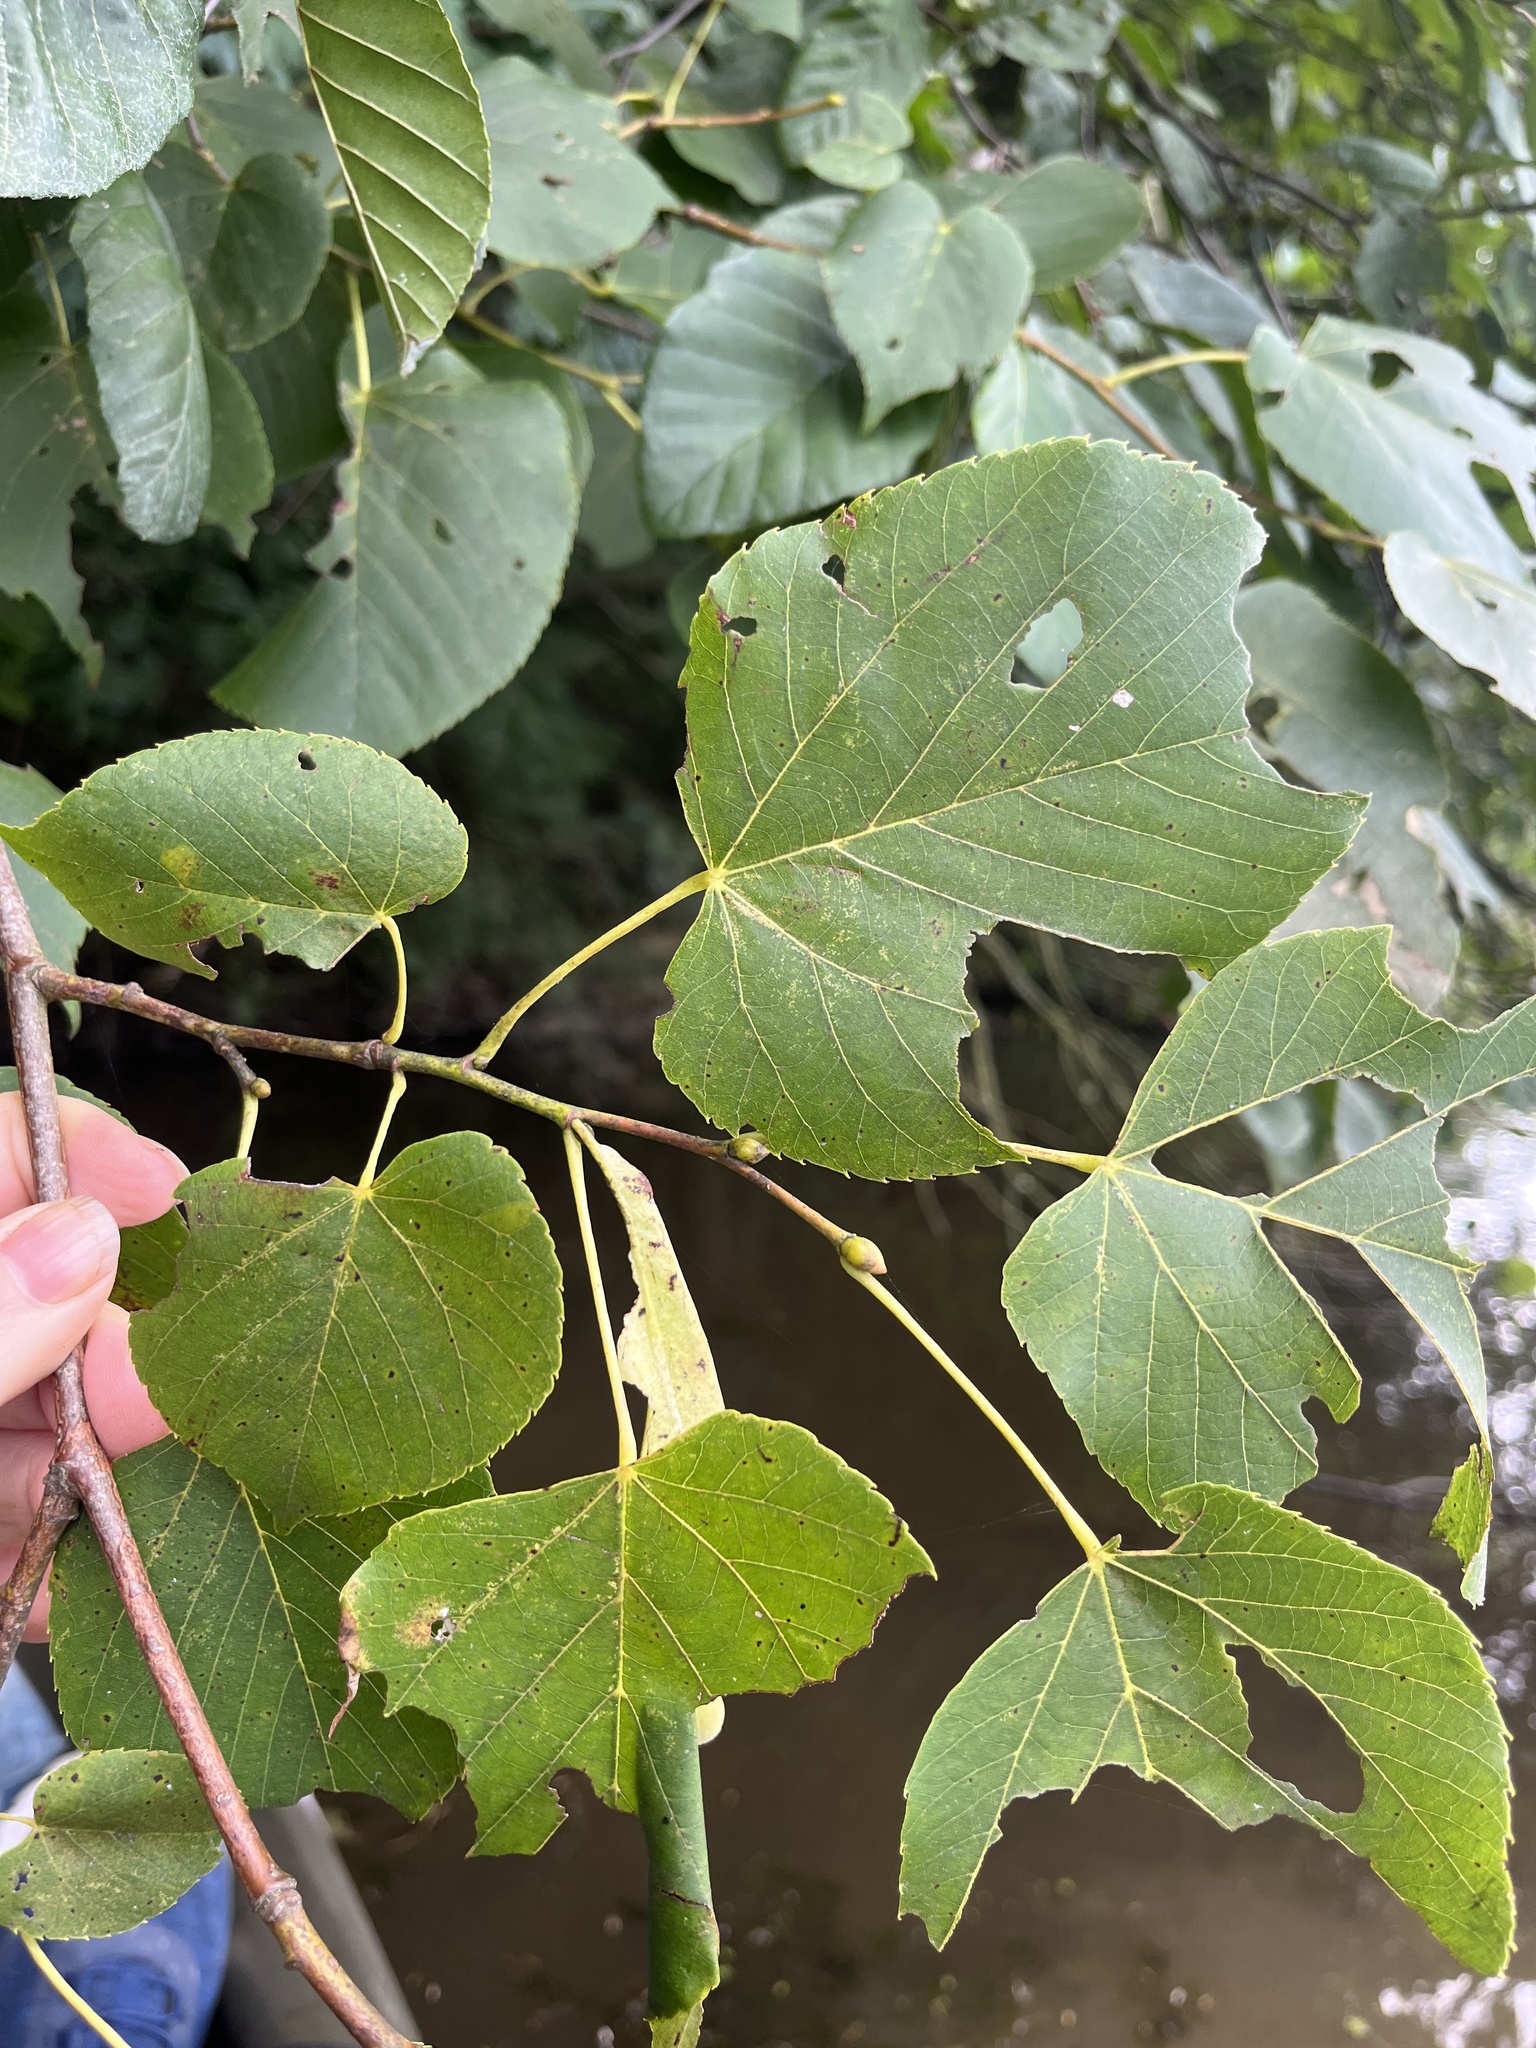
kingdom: Plantae
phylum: Tracheophyta
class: Magnoliopsida
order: Malvales
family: Malvaceae
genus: Tilia
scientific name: Tilia americana
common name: Basswood
